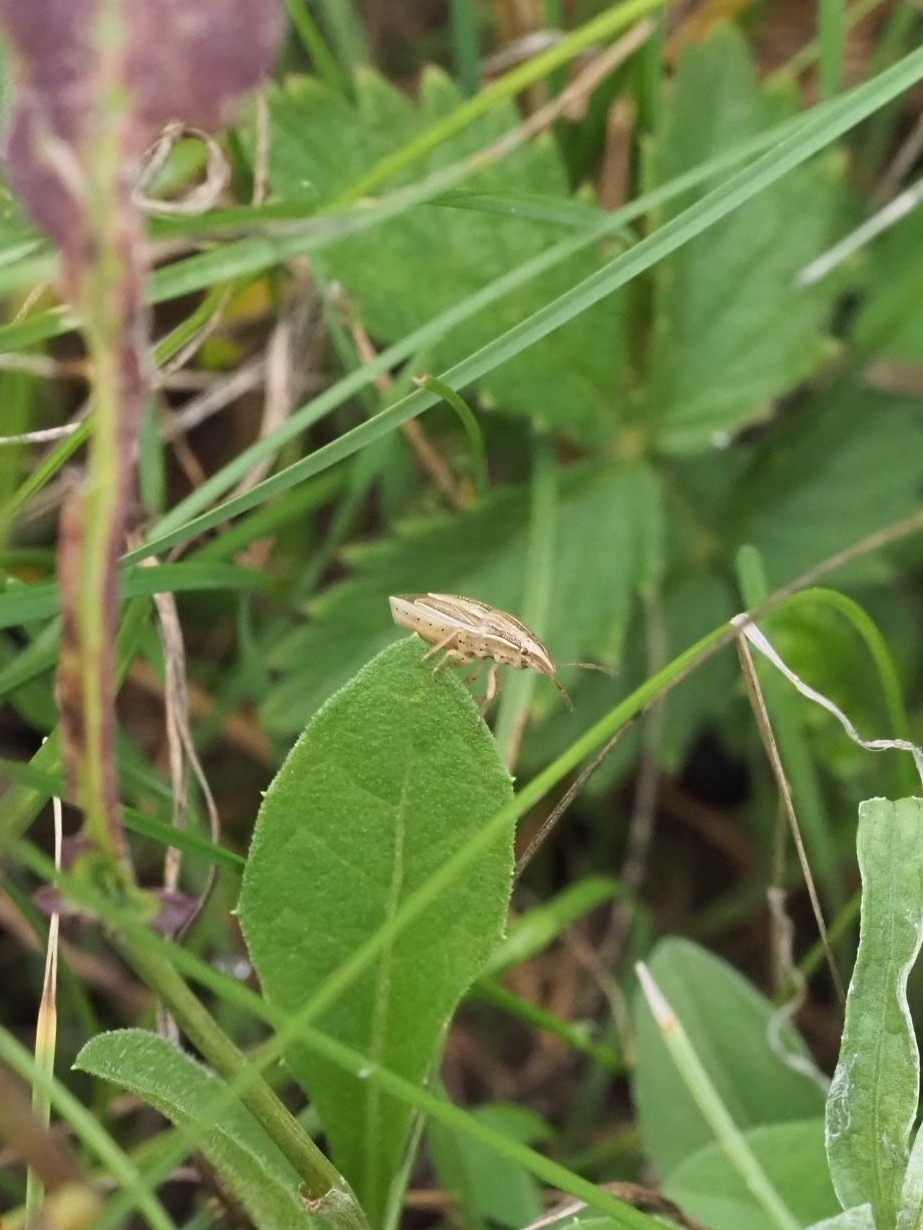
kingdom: Animalia
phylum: Arthropoda
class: Insecta
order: Hemiptera
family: Pentatomidae
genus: Aelia
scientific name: Aelia acuminata
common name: Bishop's mitre
